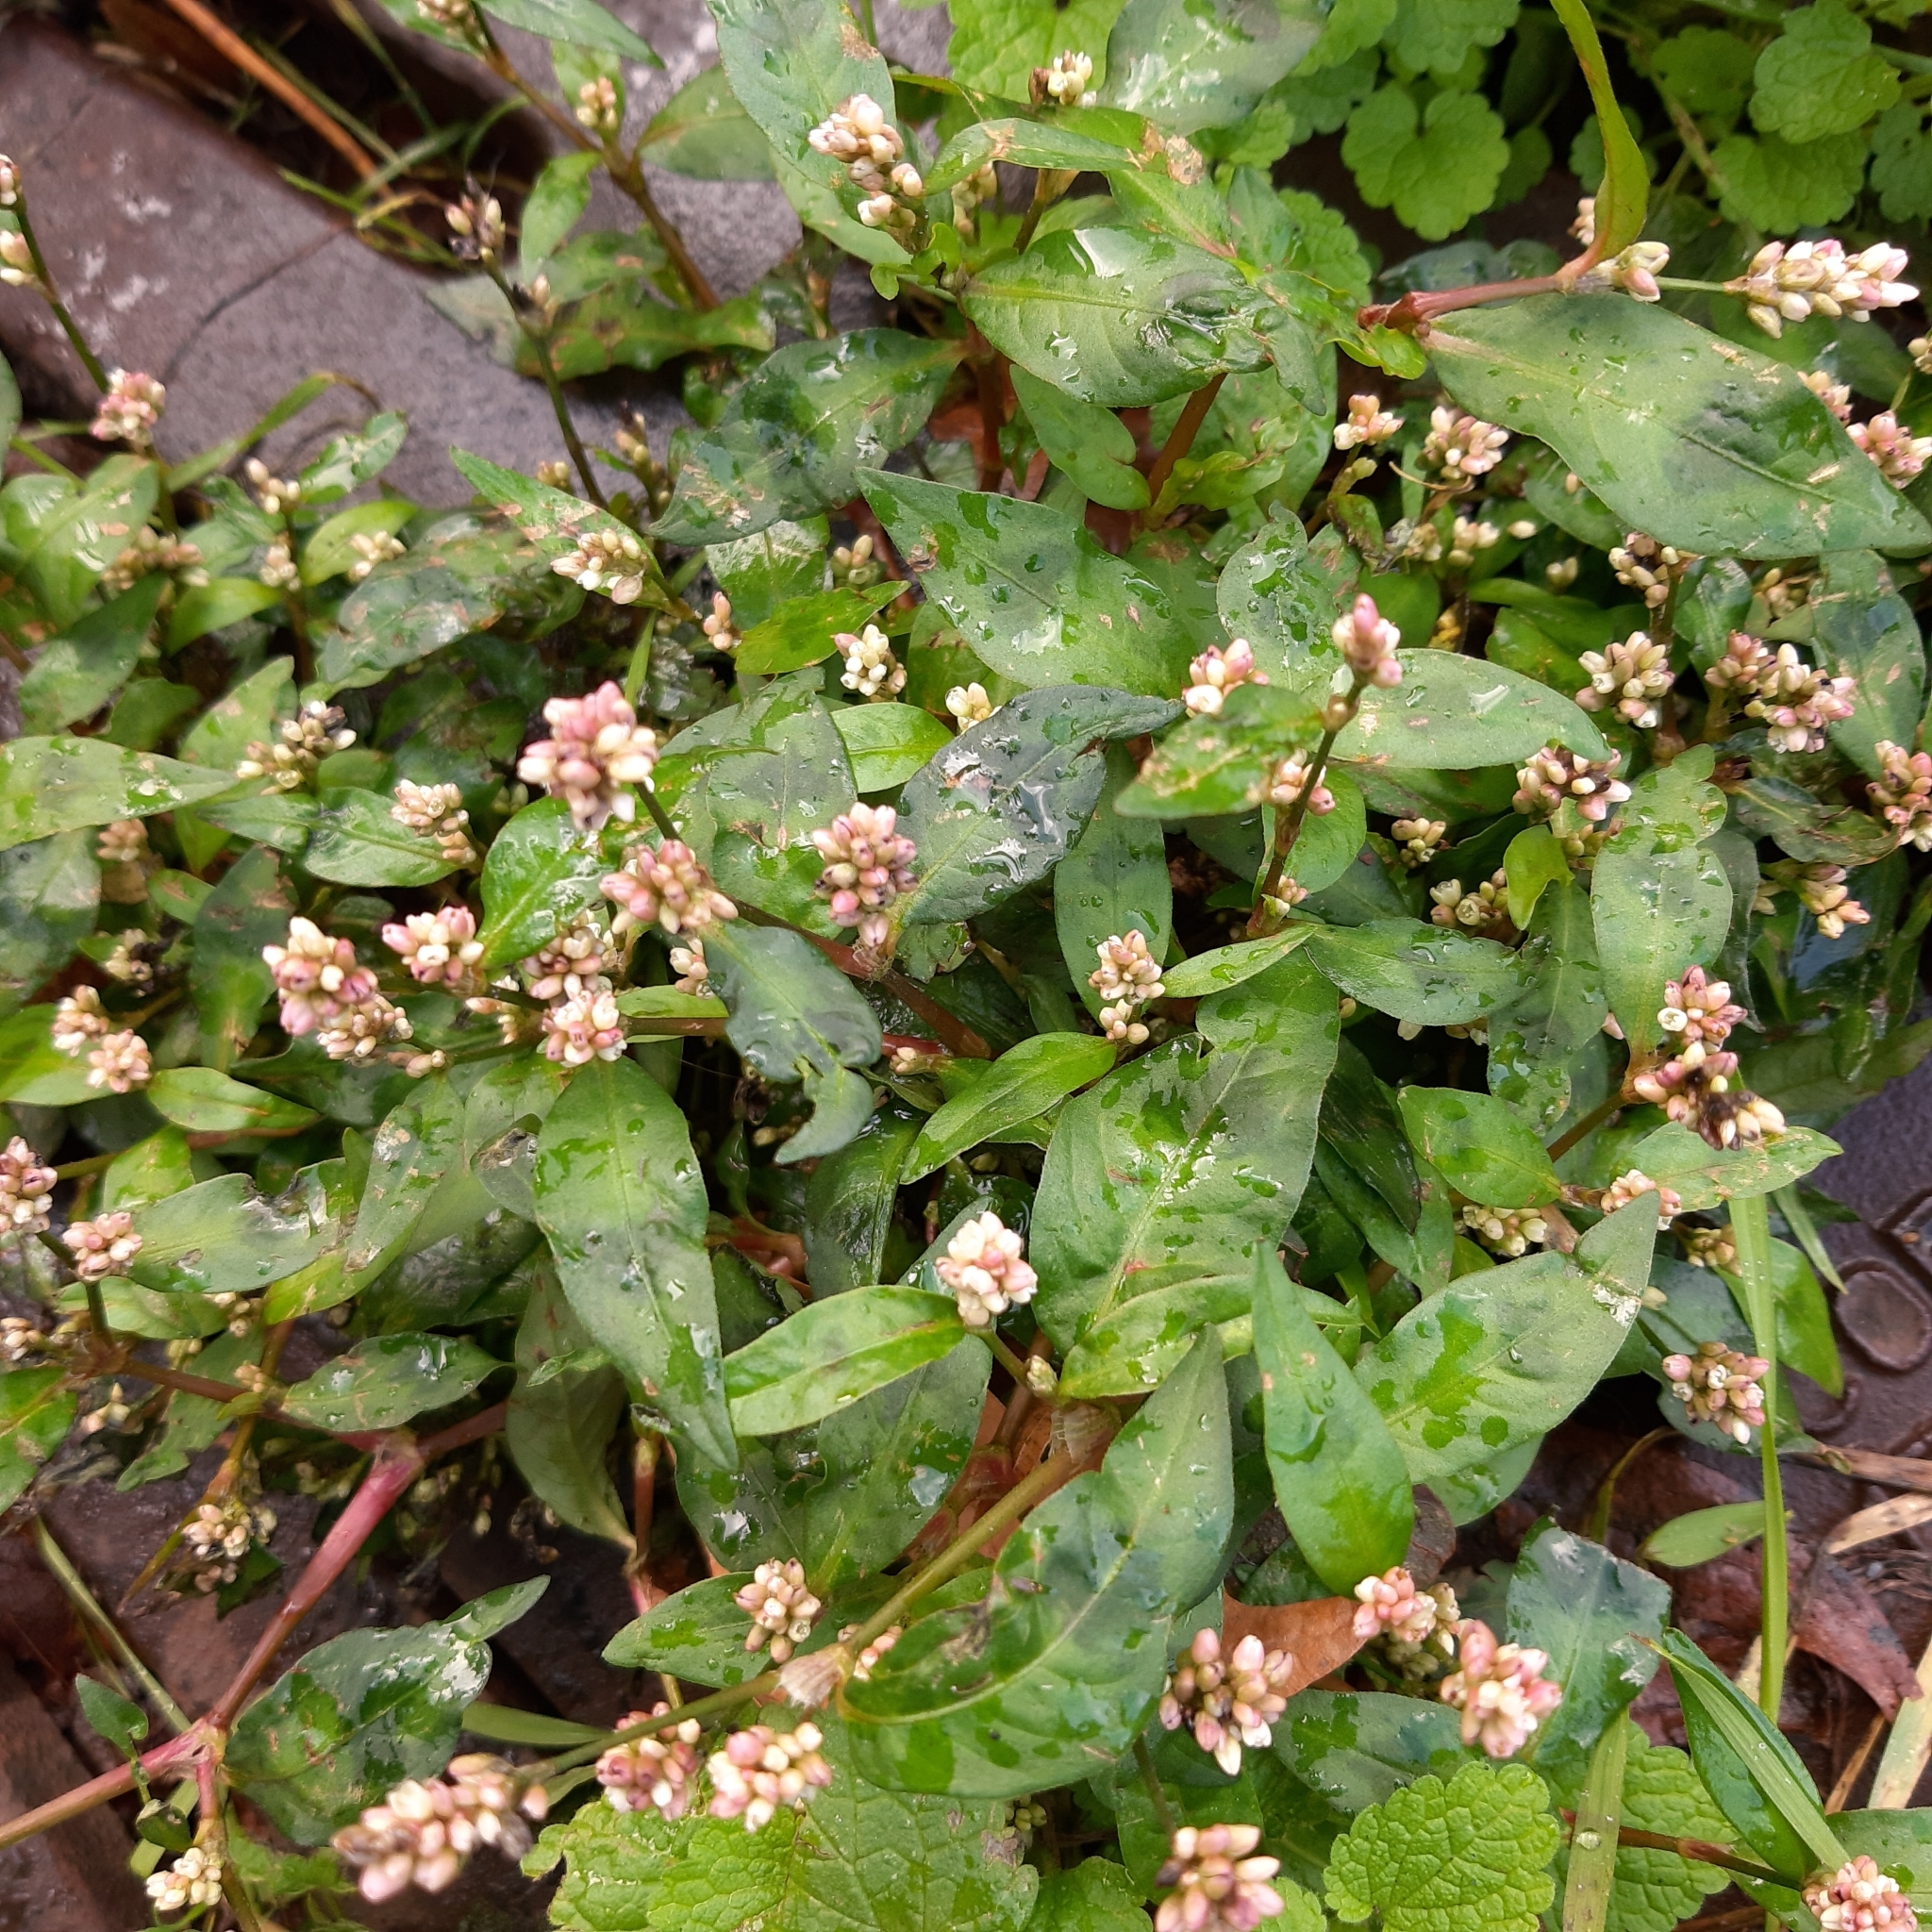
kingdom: Plantae
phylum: Tracheophyta
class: Magnoliopsida
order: Caryophyllales
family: Polygonaceae
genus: Persicaria
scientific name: Persicaria maculosa
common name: Redshank
